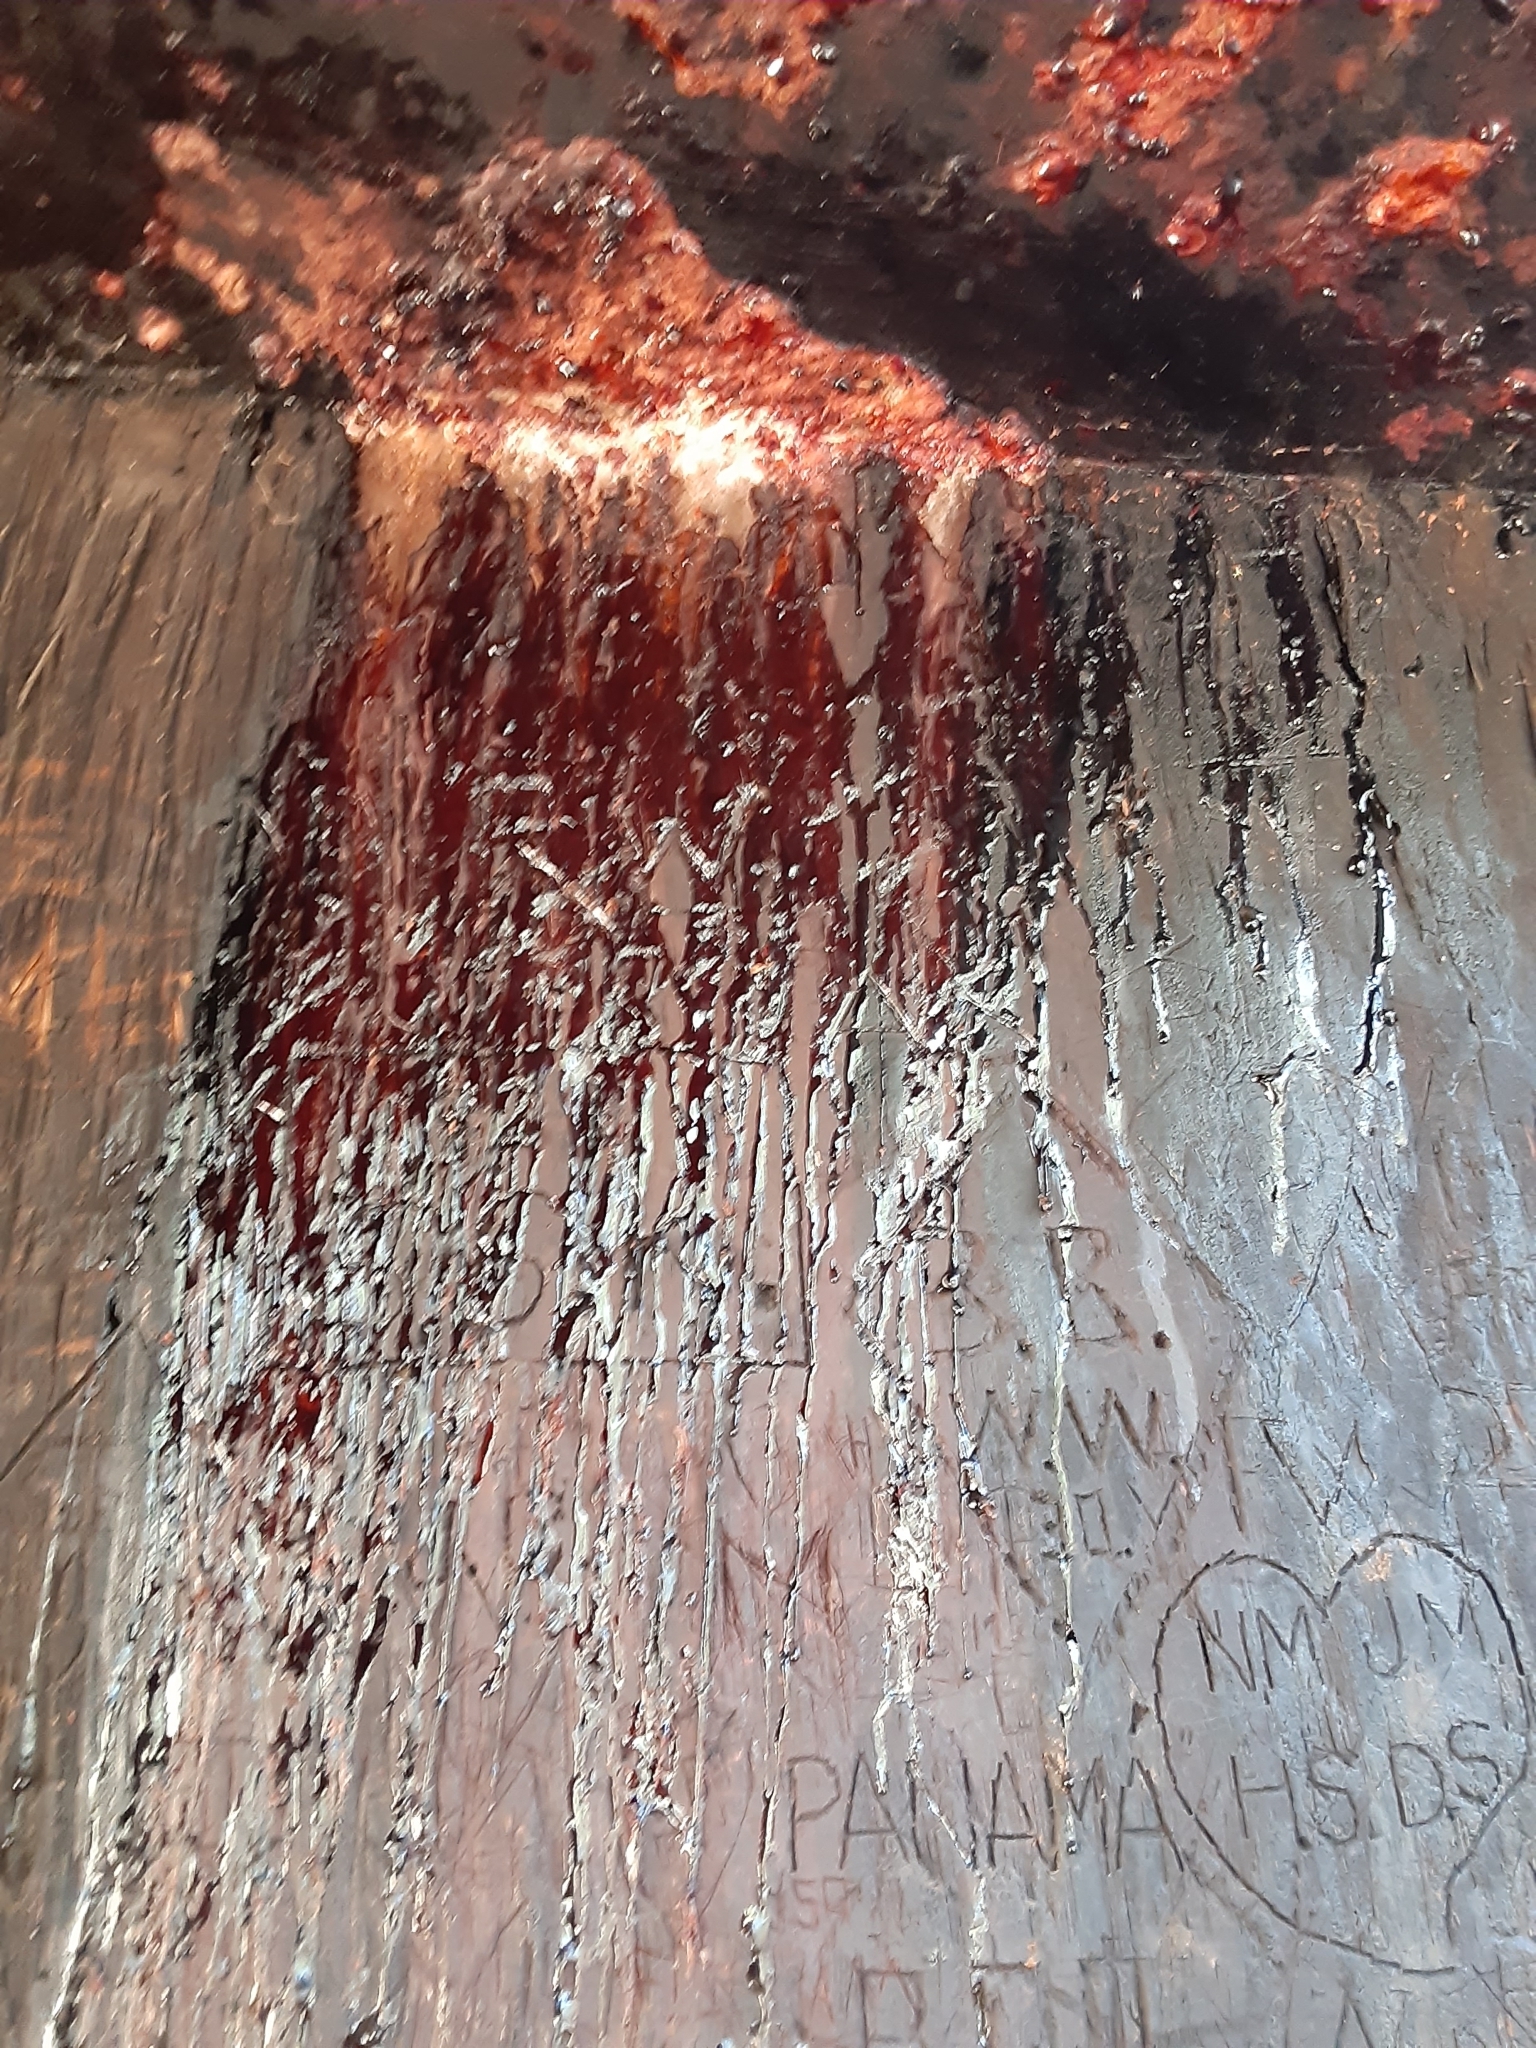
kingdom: Plantae
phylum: Tracheophyta
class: Pinopsida
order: Pinales
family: Cupressaceae
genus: Sequoiadendron
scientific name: Sequoiadendron giganteum
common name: Wellingtonia
